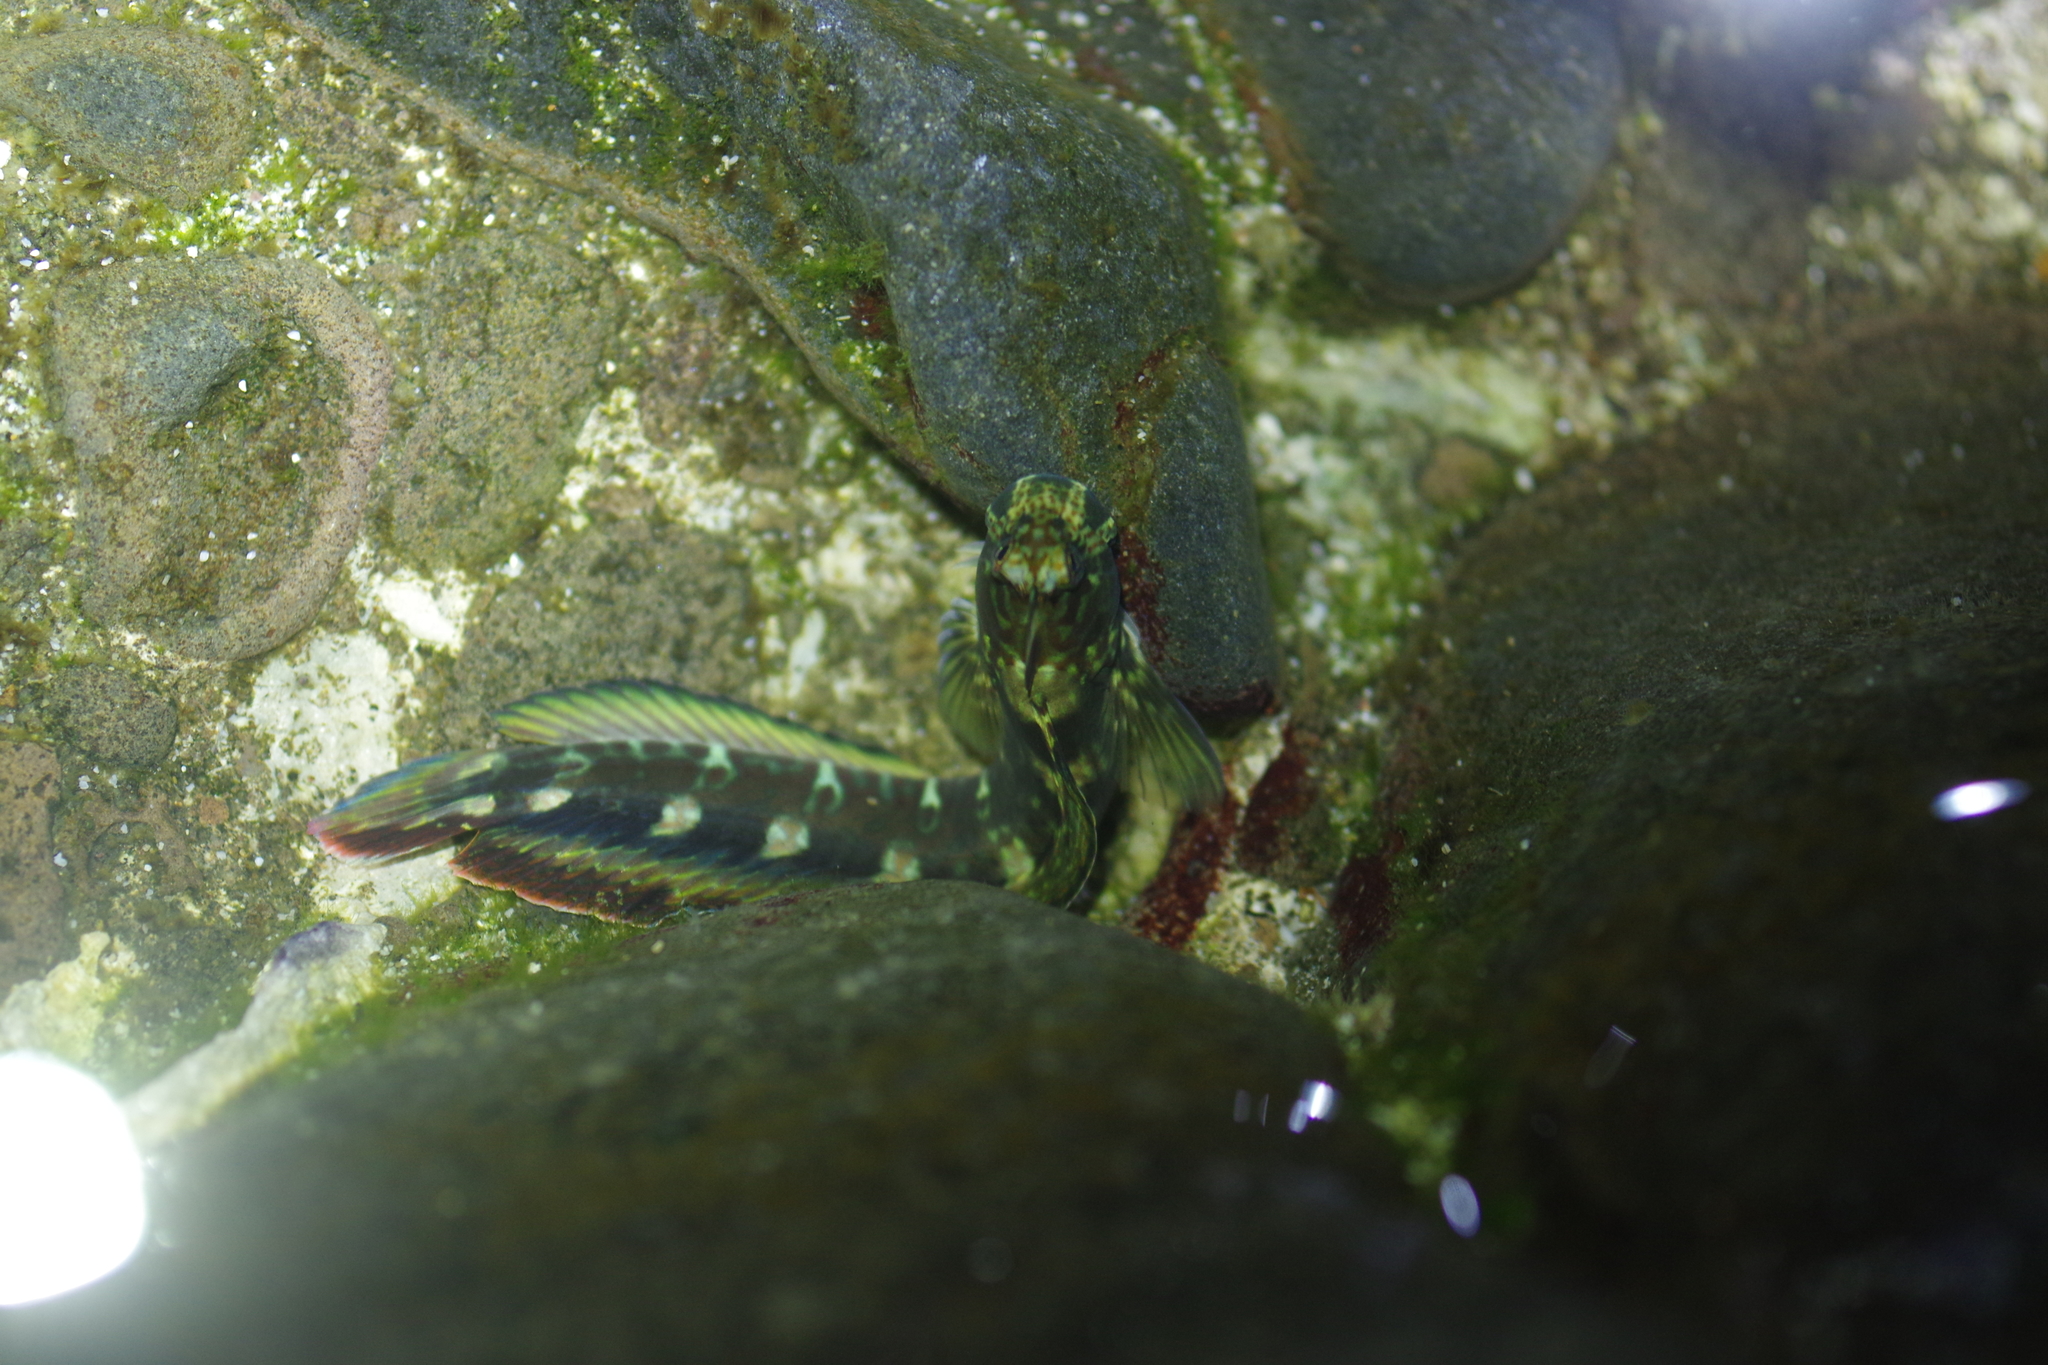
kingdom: Animalia
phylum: Chordata
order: Perciformes
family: Blenniidae
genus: Istiblennius
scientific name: Istiblennius dussumieri
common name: Dussumier's rockskipper
